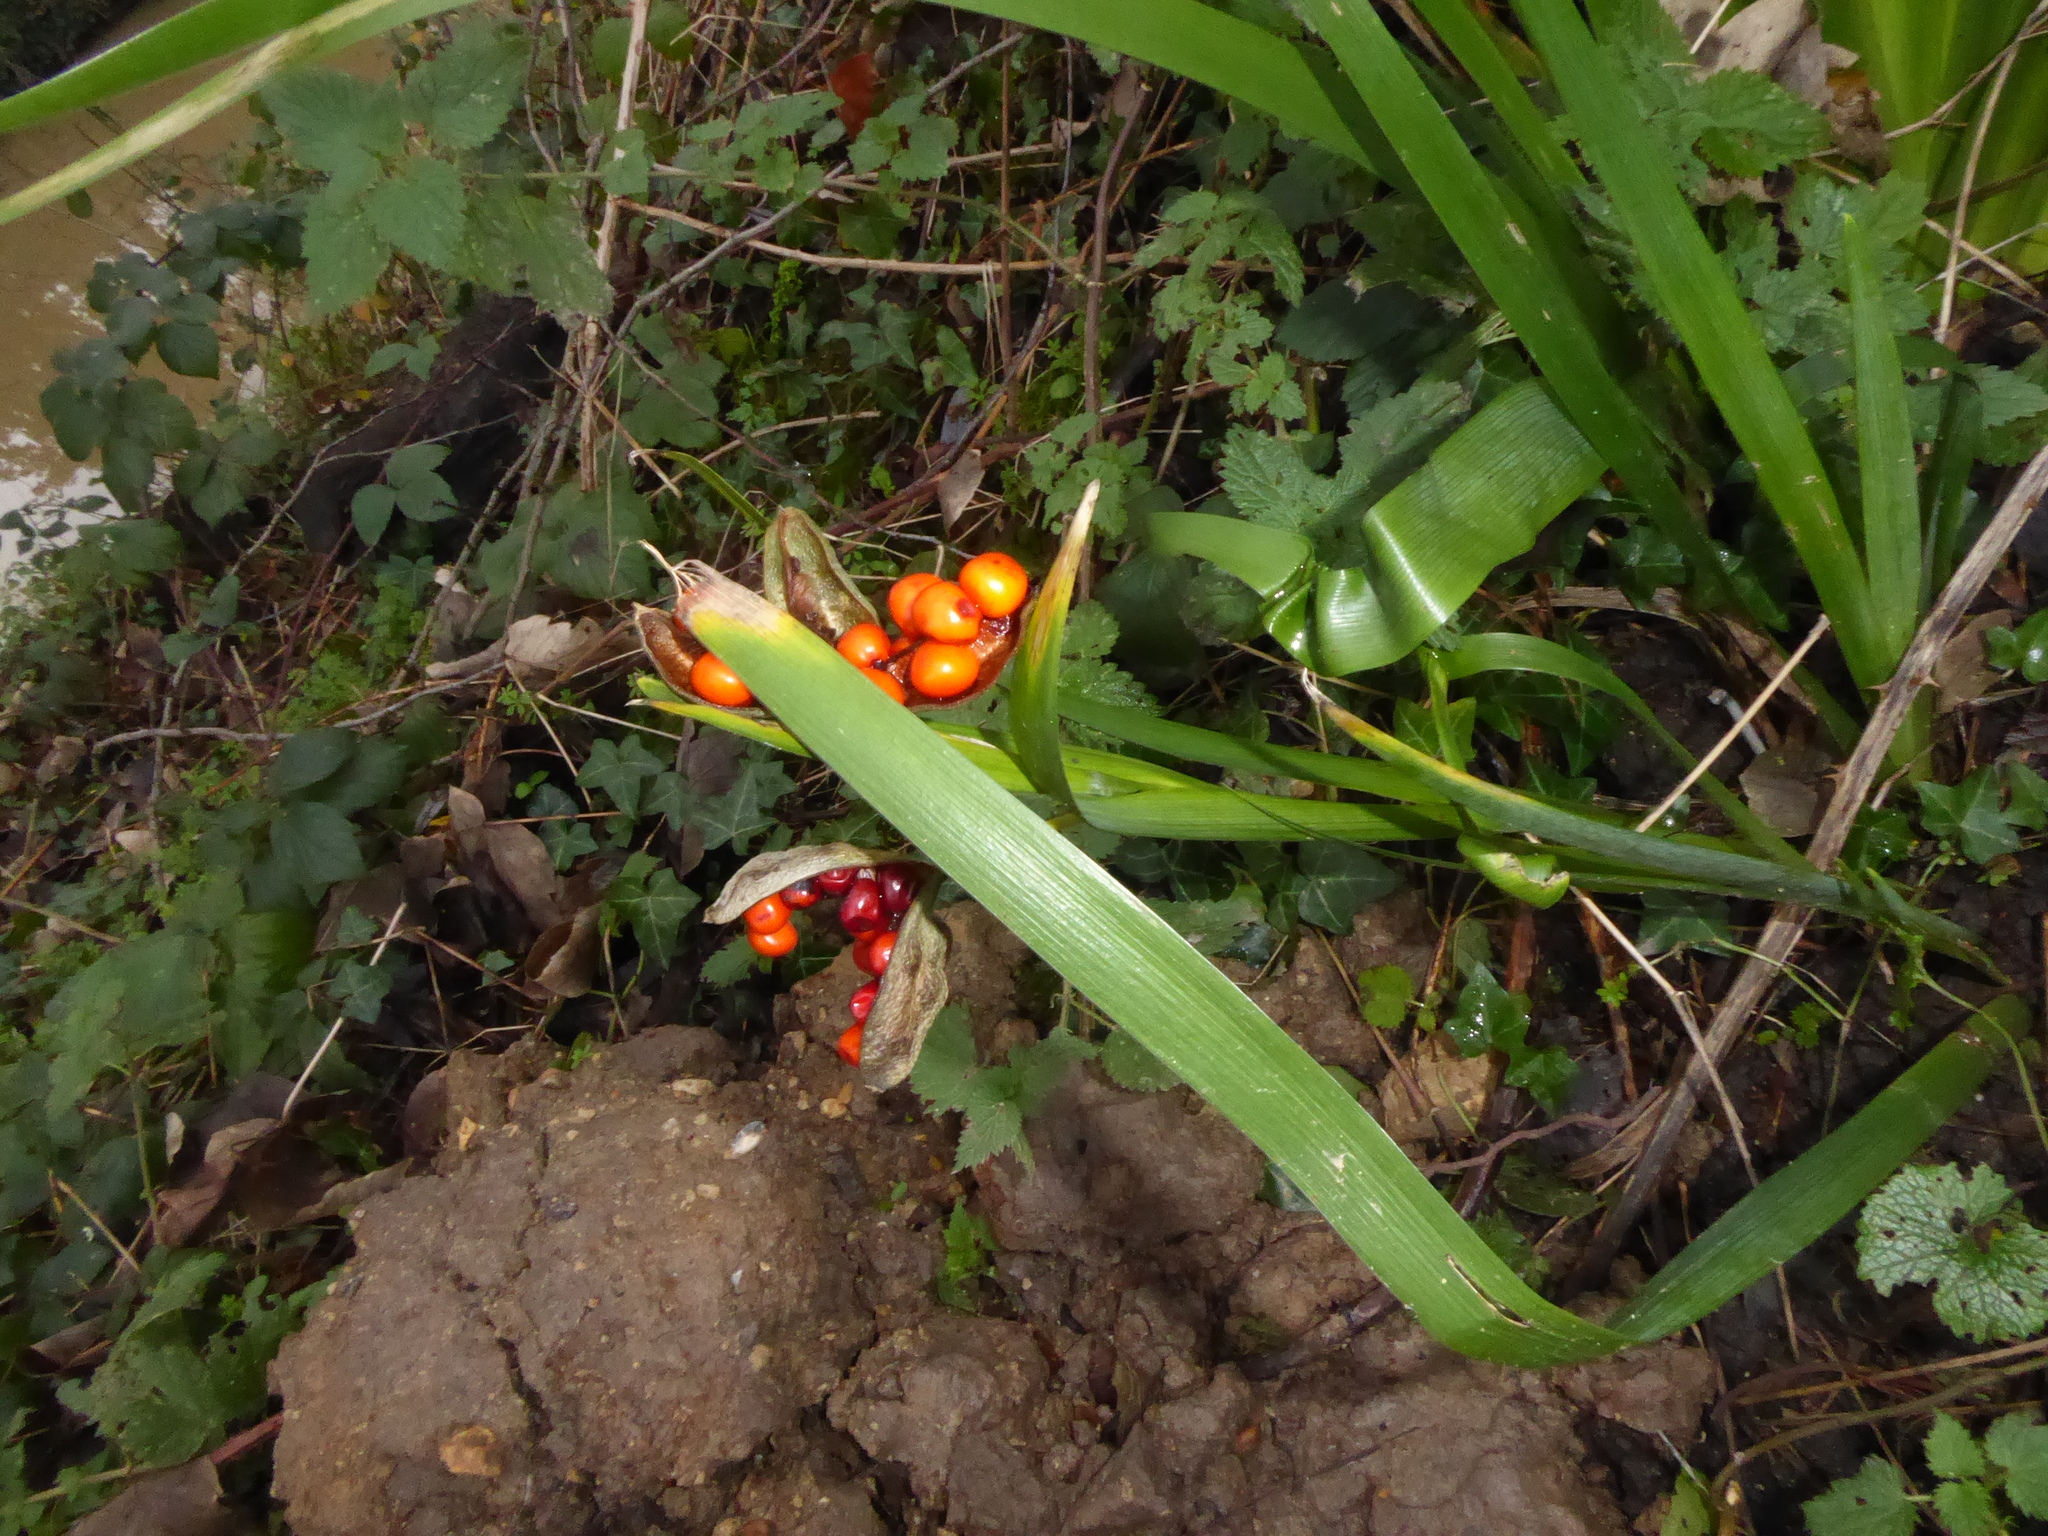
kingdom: Plantae
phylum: Tracheophyta
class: Liliopsida
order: Asparagales
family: Iridaceae
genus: Iris
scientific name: Iris foetidissima
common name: Stinking iris
